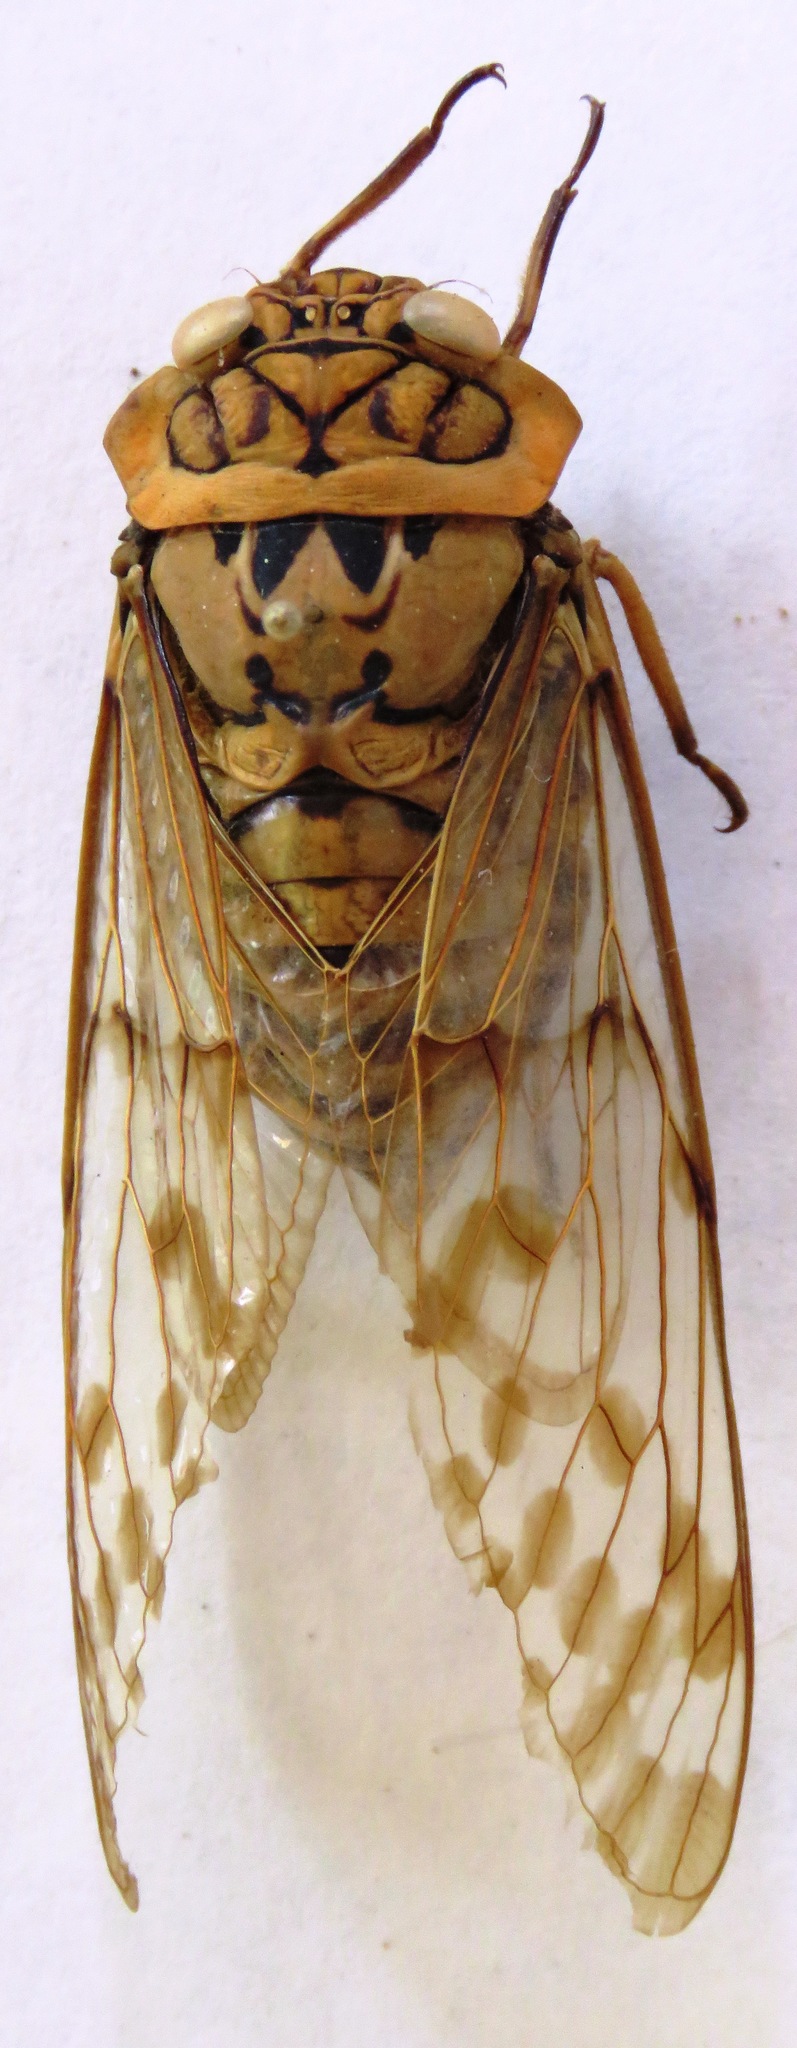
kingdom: Animalia
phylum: Arthropoda
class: Insecta
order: Hemiptera
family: Cicadidae
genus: Miranha
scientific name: Miranha imbellis
